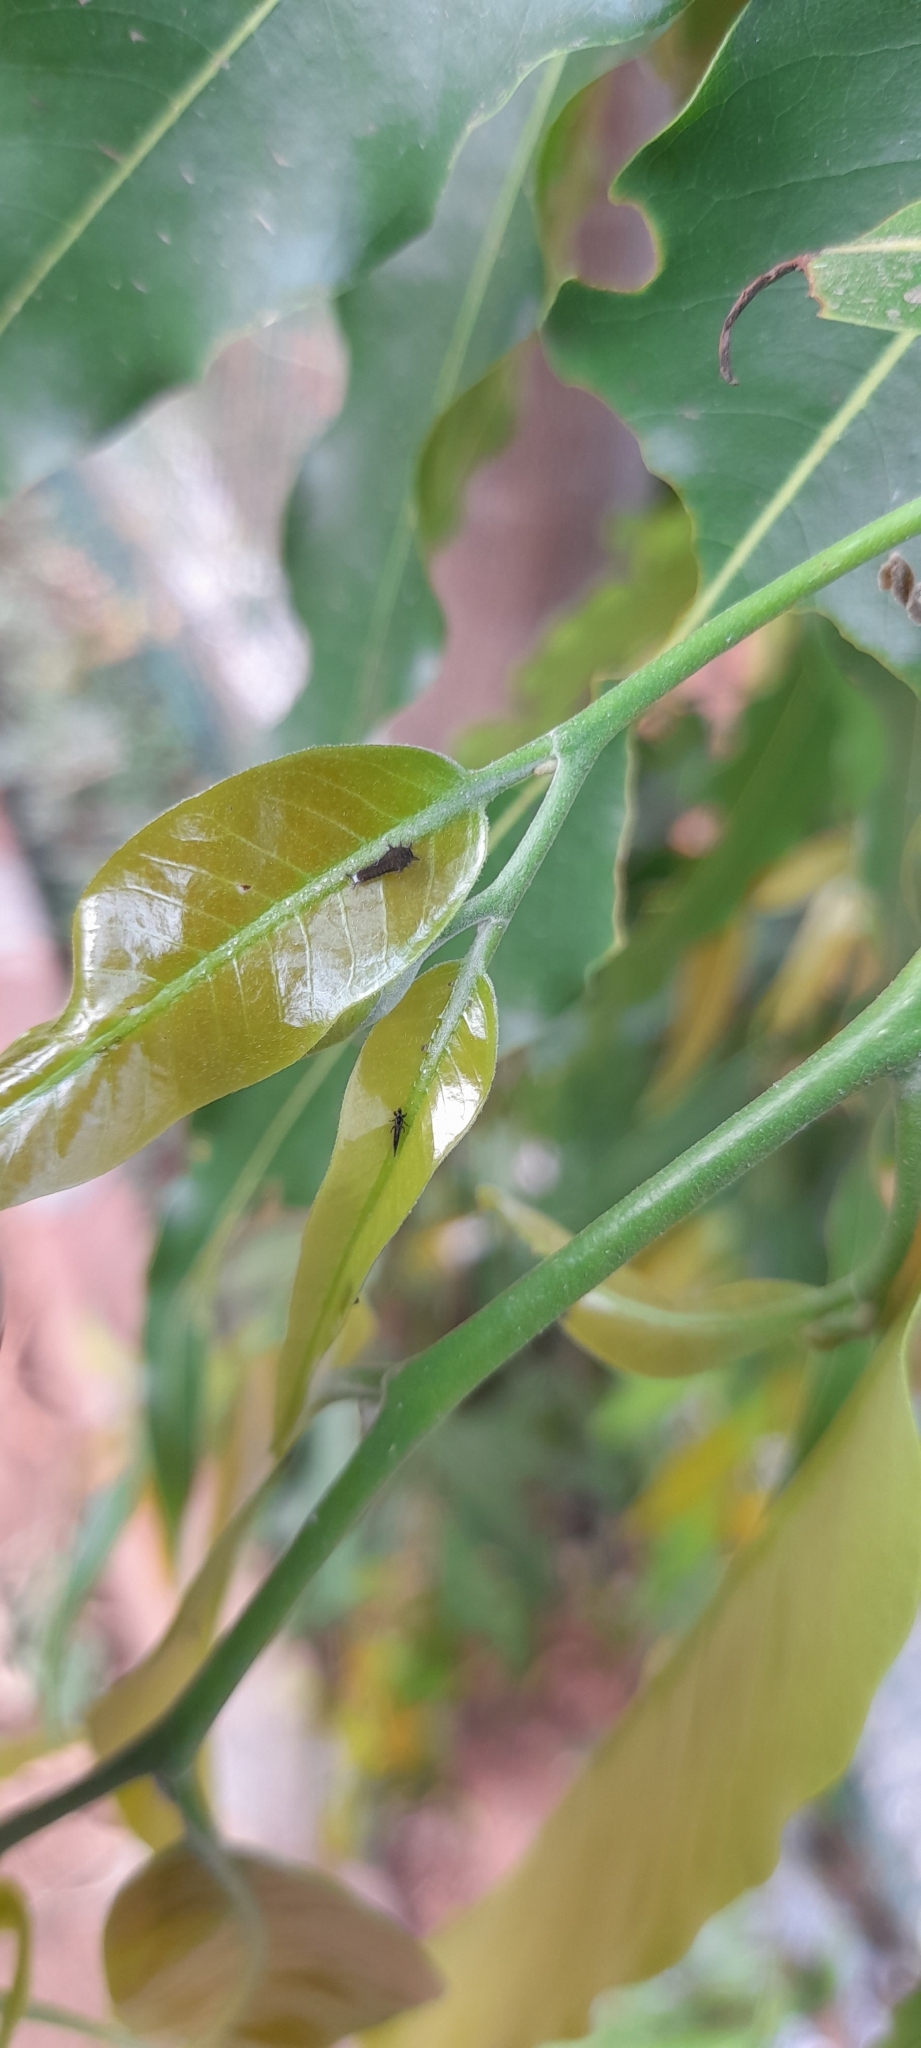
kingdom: Animalia
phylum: Arthropoda
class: Insecta
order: Lepidoptera
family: Papilionidae
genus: Graphium
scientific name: Graphium doson
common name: Common jay
